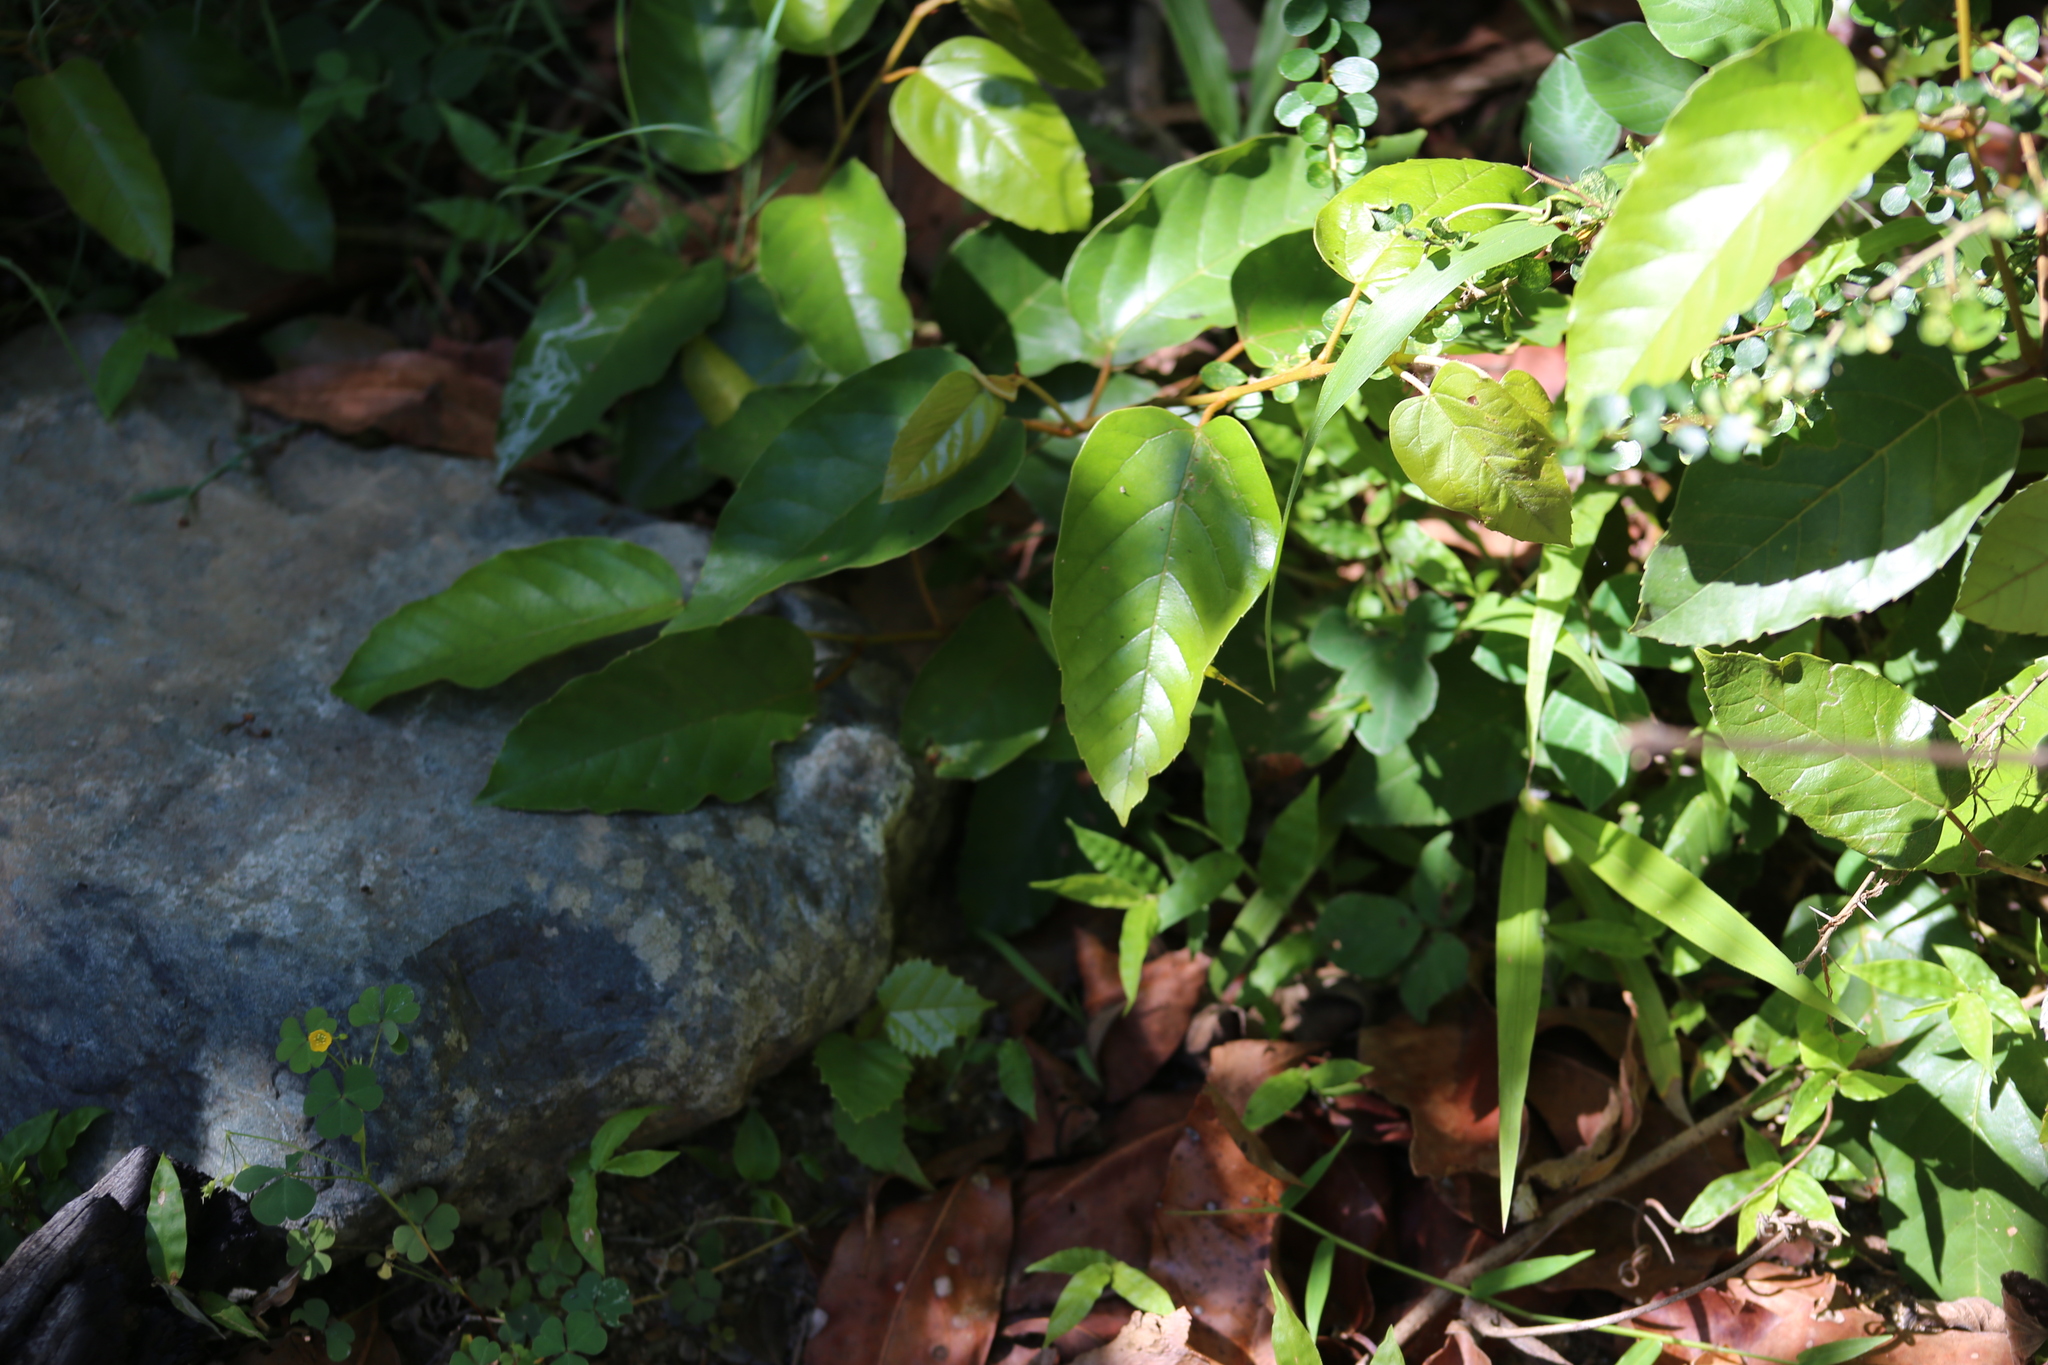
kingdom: Plantae
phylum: Tracheophyta
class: Magnoliopsida
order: Vitales
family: Vitaceae
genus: Cissus
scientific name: Cissus antarctica
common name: Kangaroo vine
